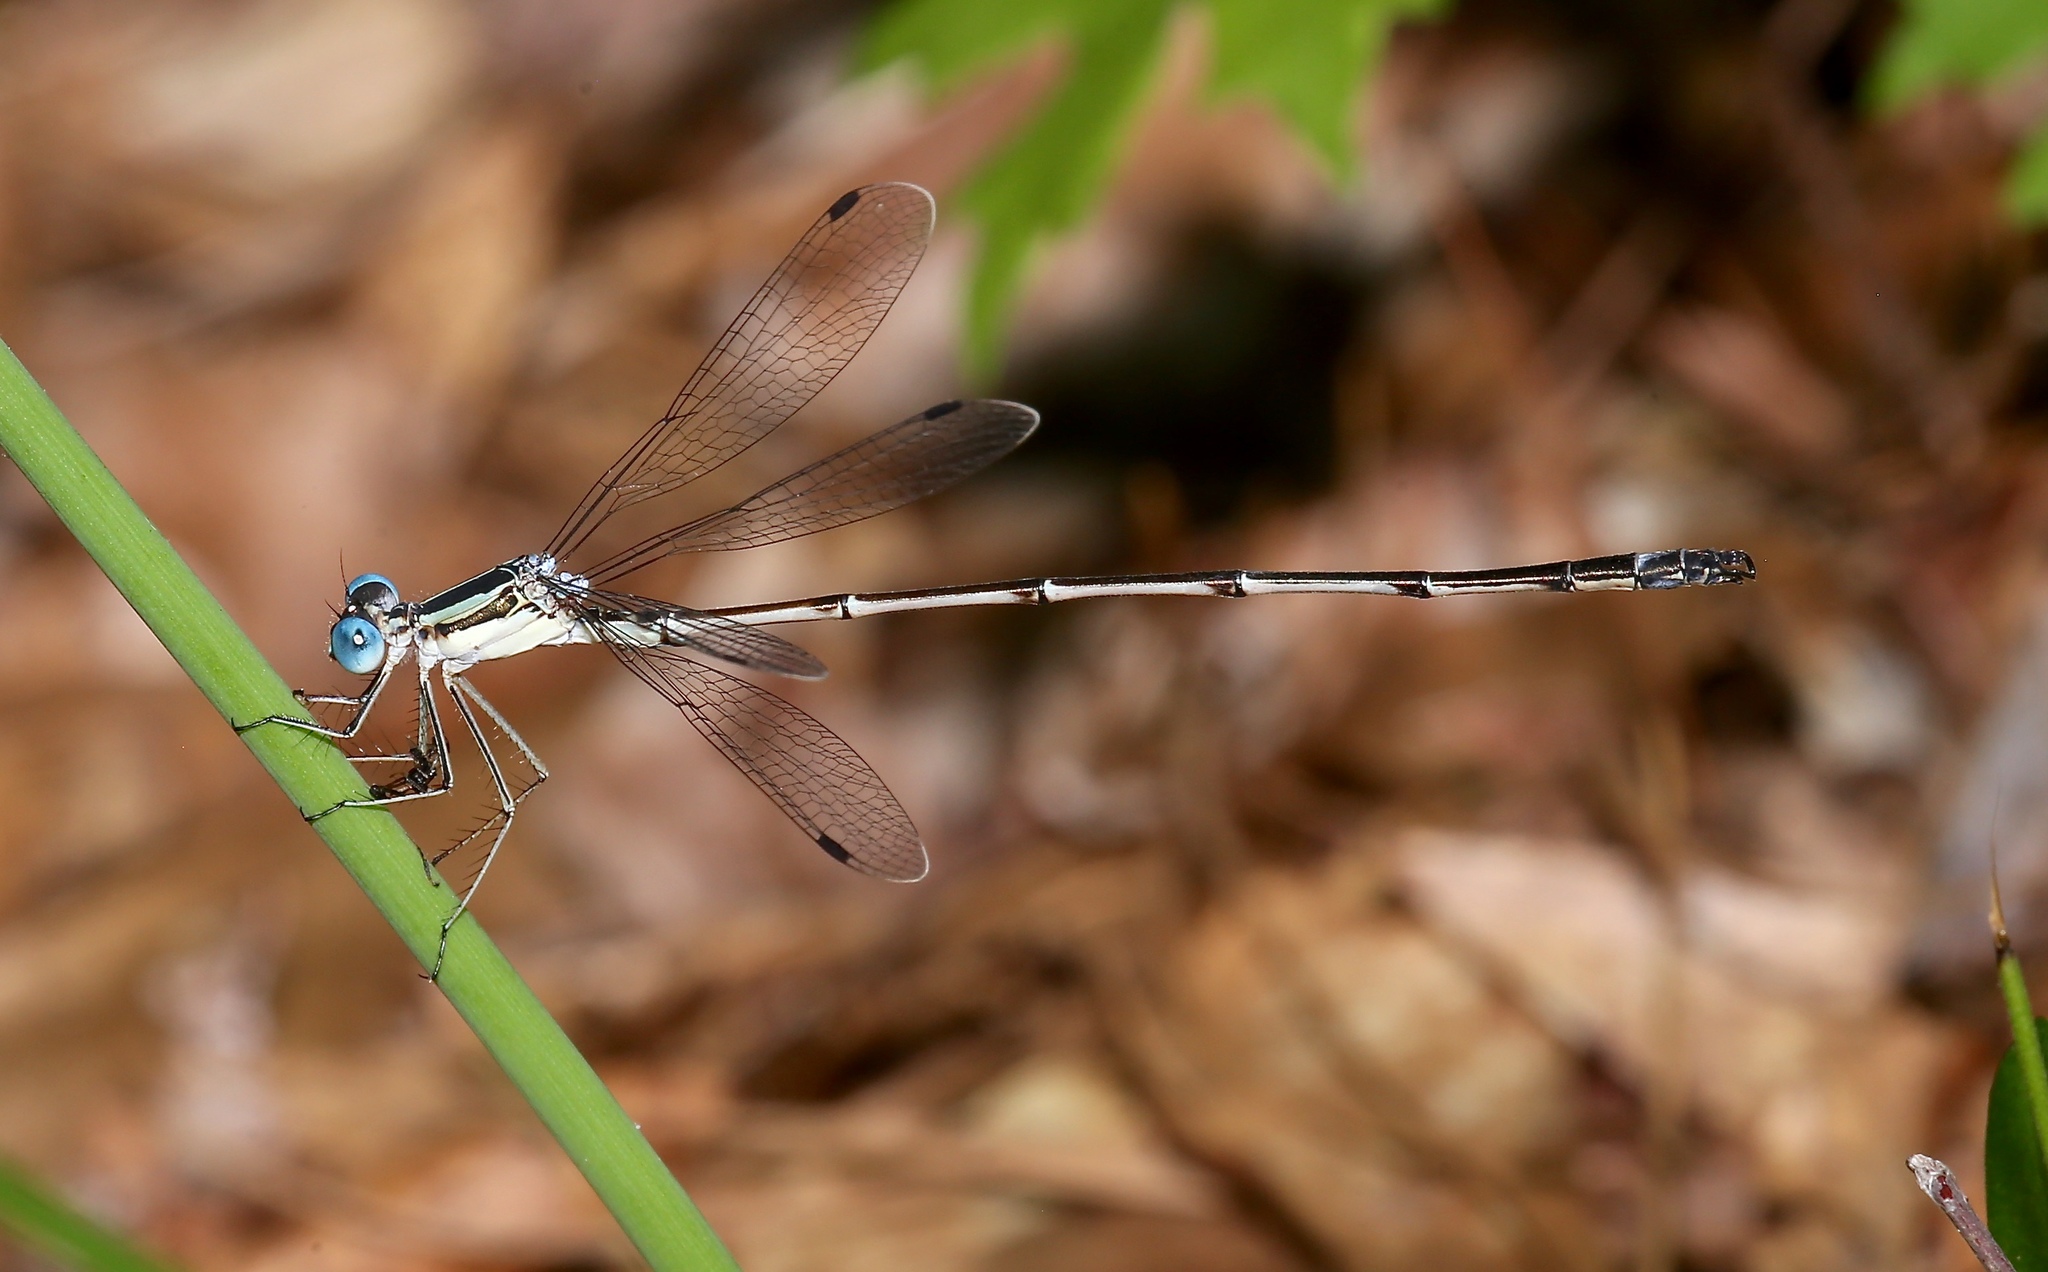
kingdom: Animalia
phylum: Arthropoda
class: Insecta
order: Odonata
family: Lestidae
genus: Lestes
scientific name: Lestes rectangularis
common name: Slender spreadwing
